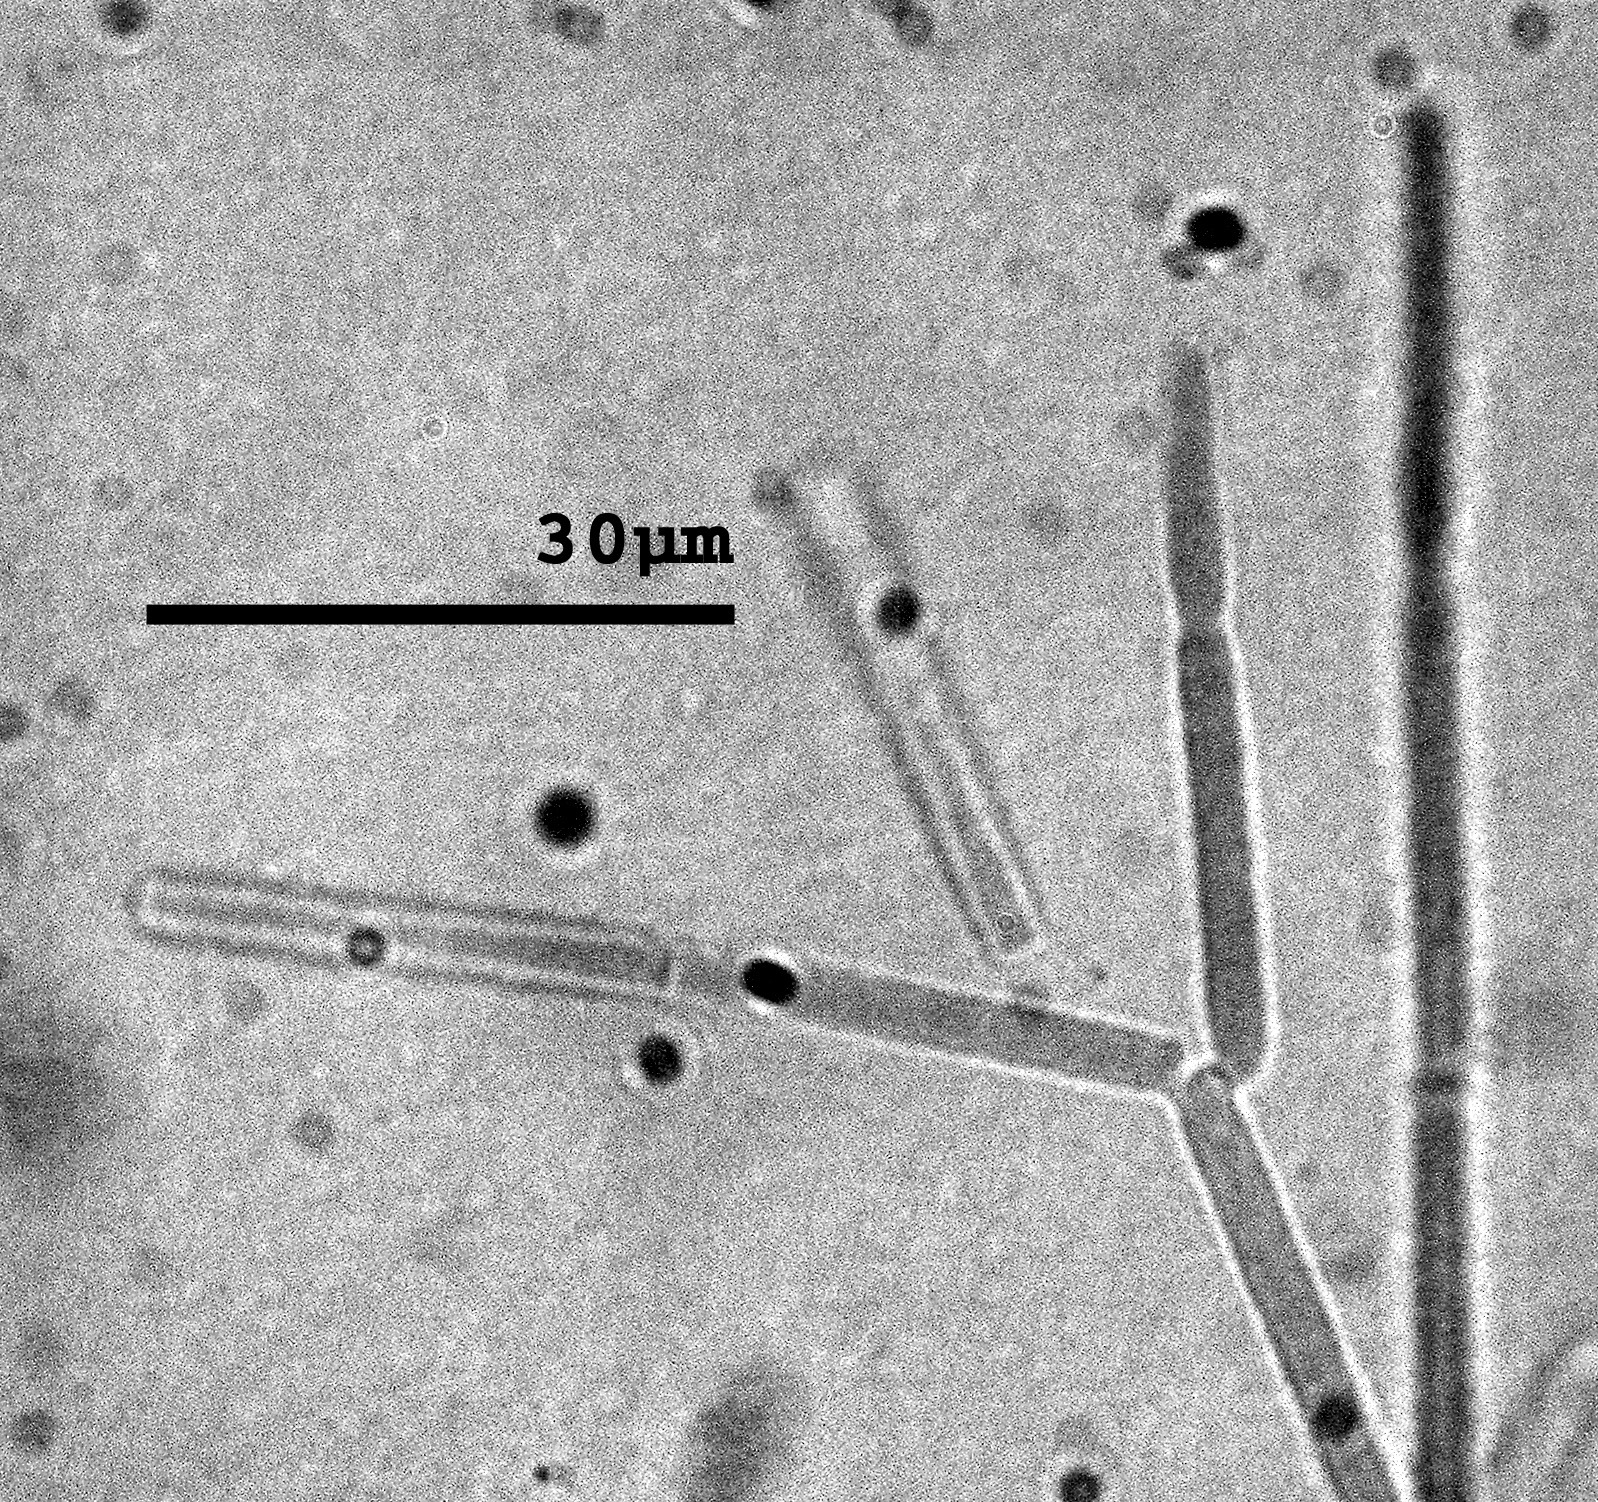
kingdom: Fungi
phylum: Ascomycota
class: Sordariomycetes
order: Xylariales
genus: Polyscytalum
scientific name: Polyscytalum ciliatum
